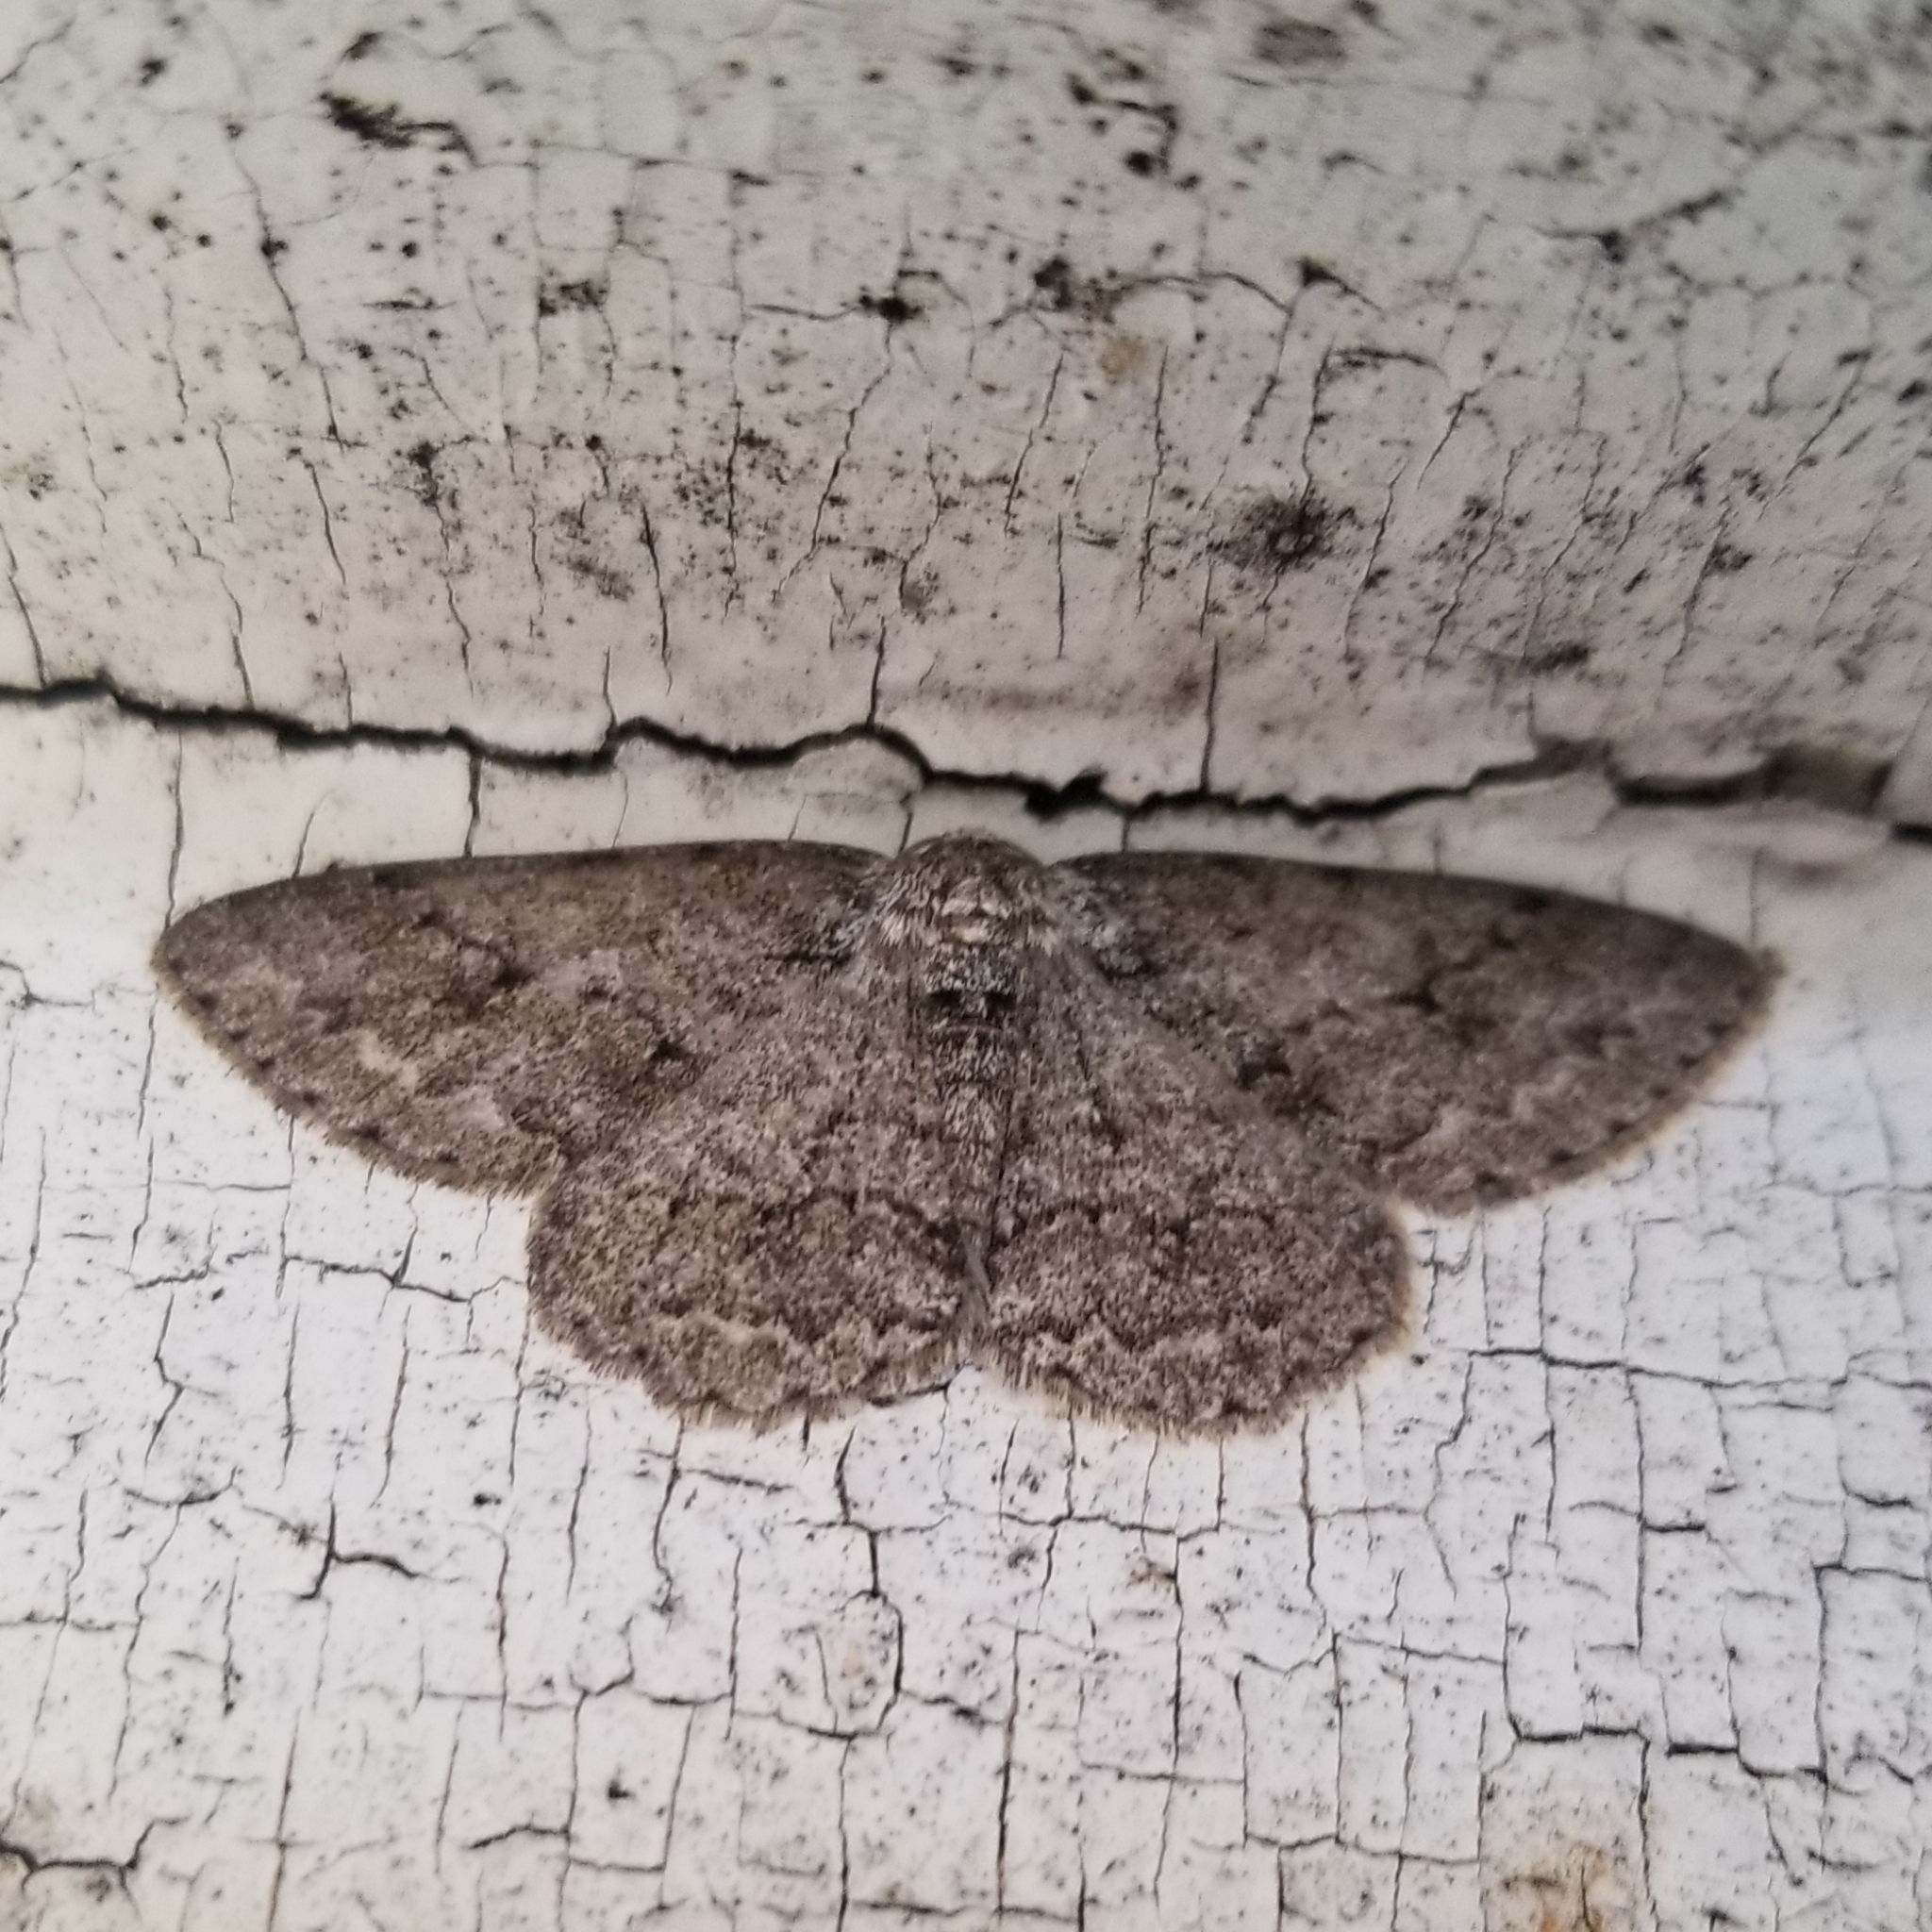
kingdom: Animalia
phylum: Arthropoda
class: Insecta
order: Lepidoptera
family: Geometridae
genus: Ectropis
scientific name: Ectropis crepuscularia
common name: Engrailed
